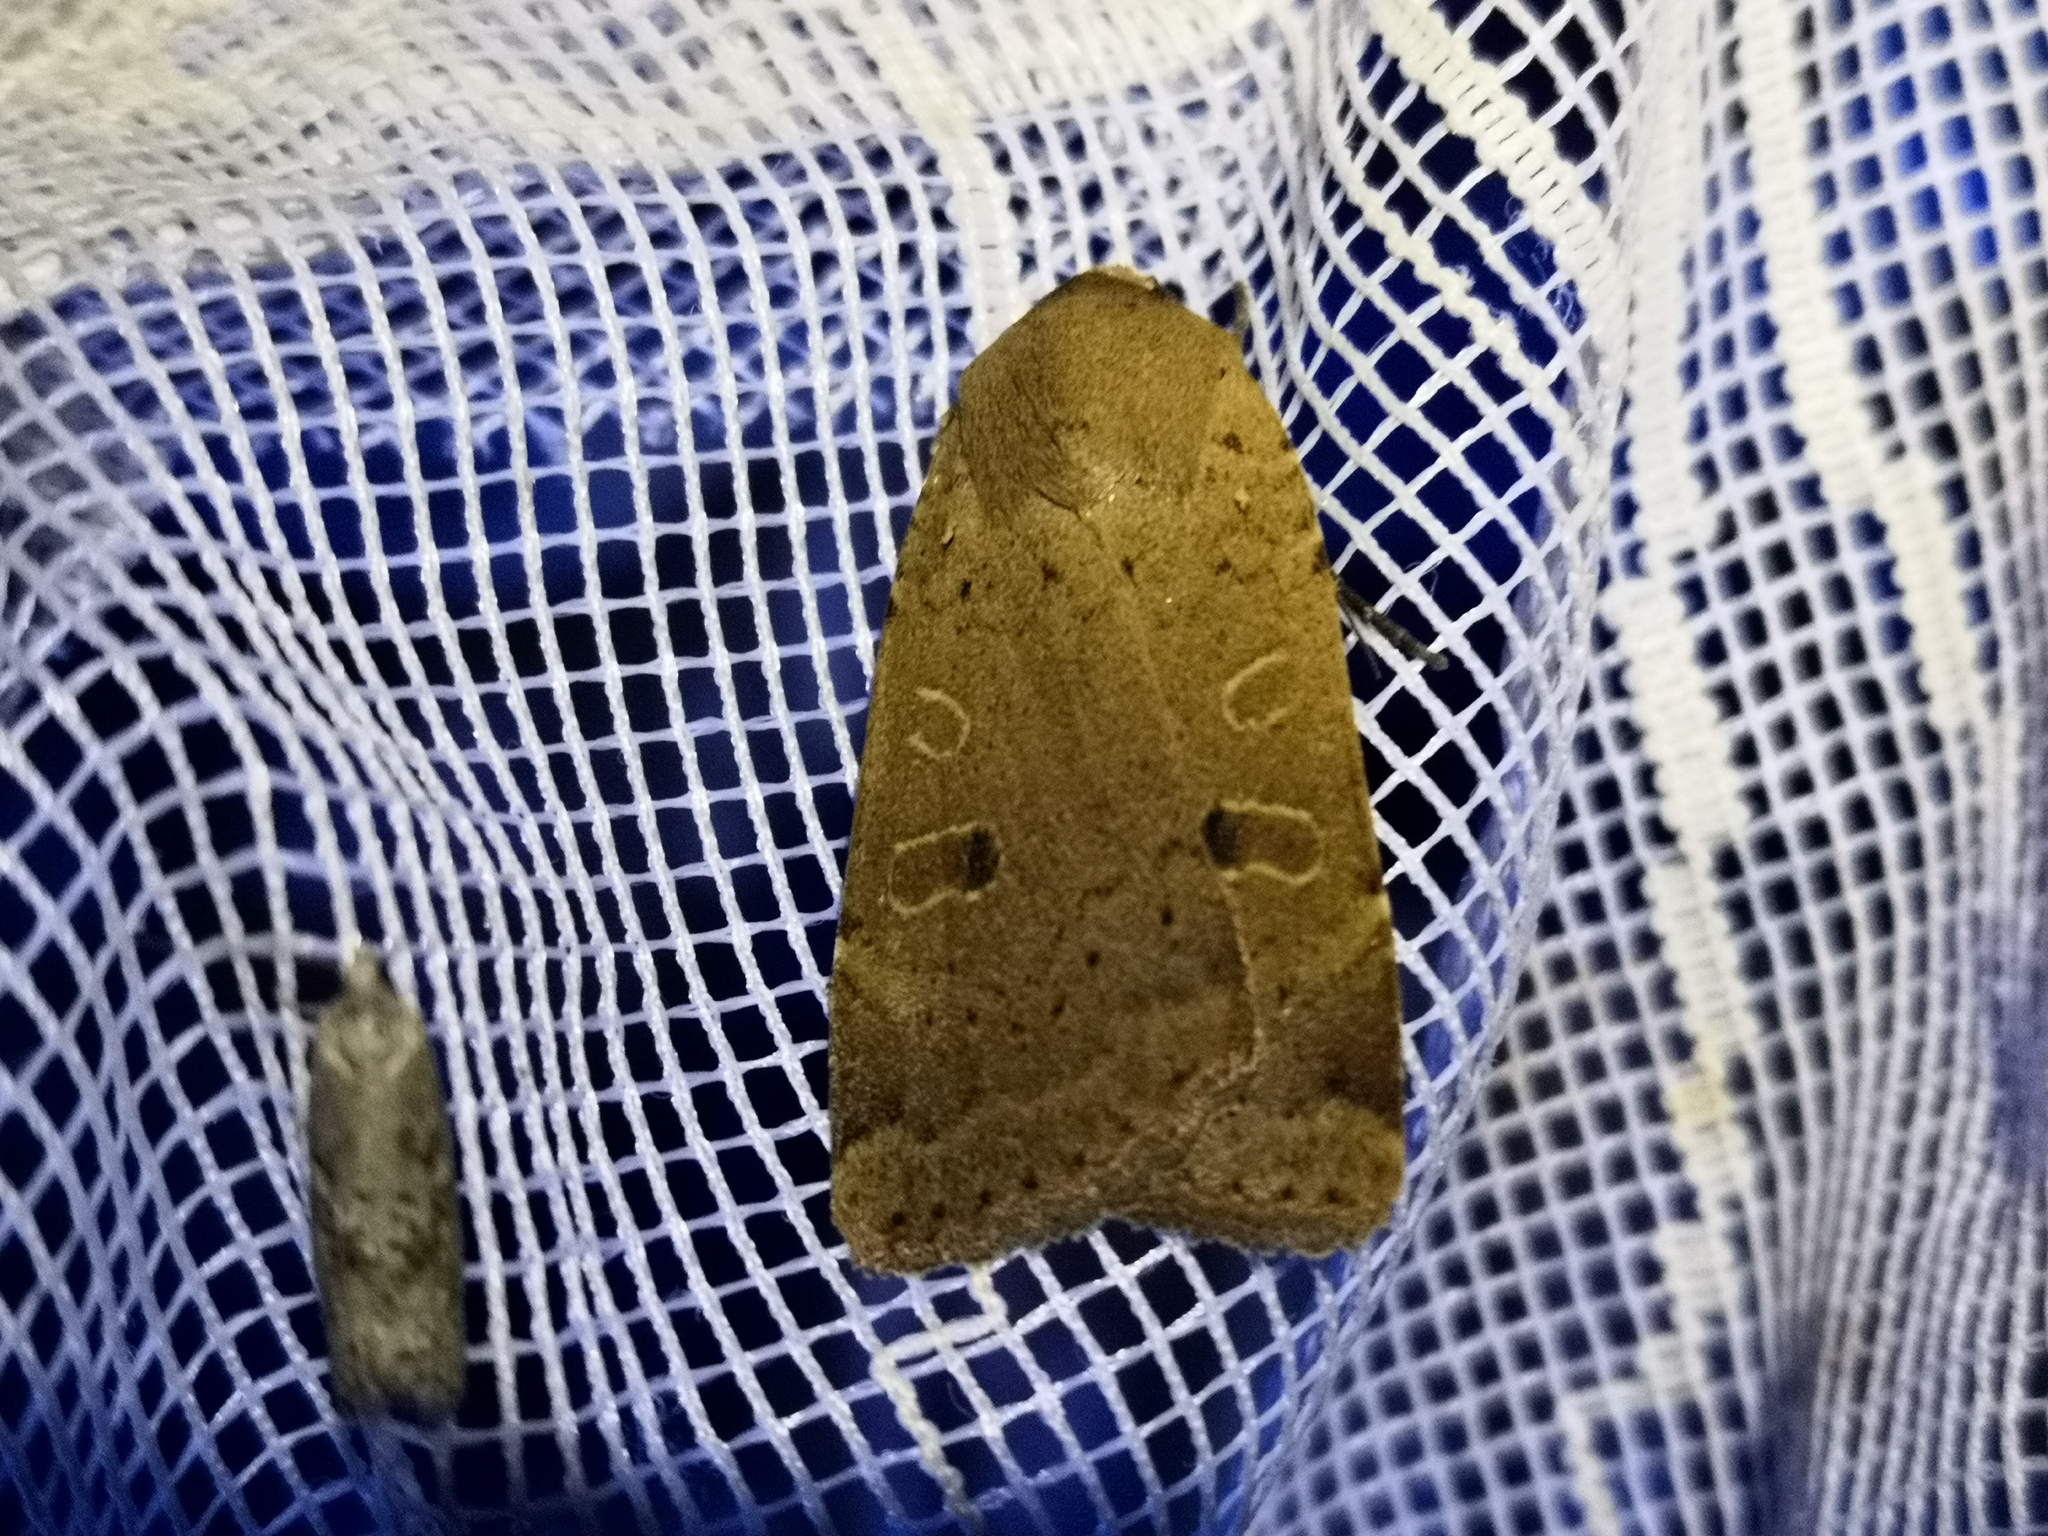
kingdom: Animalia
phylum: Arthropoda
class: Insecta
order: Lepidoptera
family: Noctuidae
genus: Noctua
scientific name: Noctua comes
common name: Lesser yellow underwing
